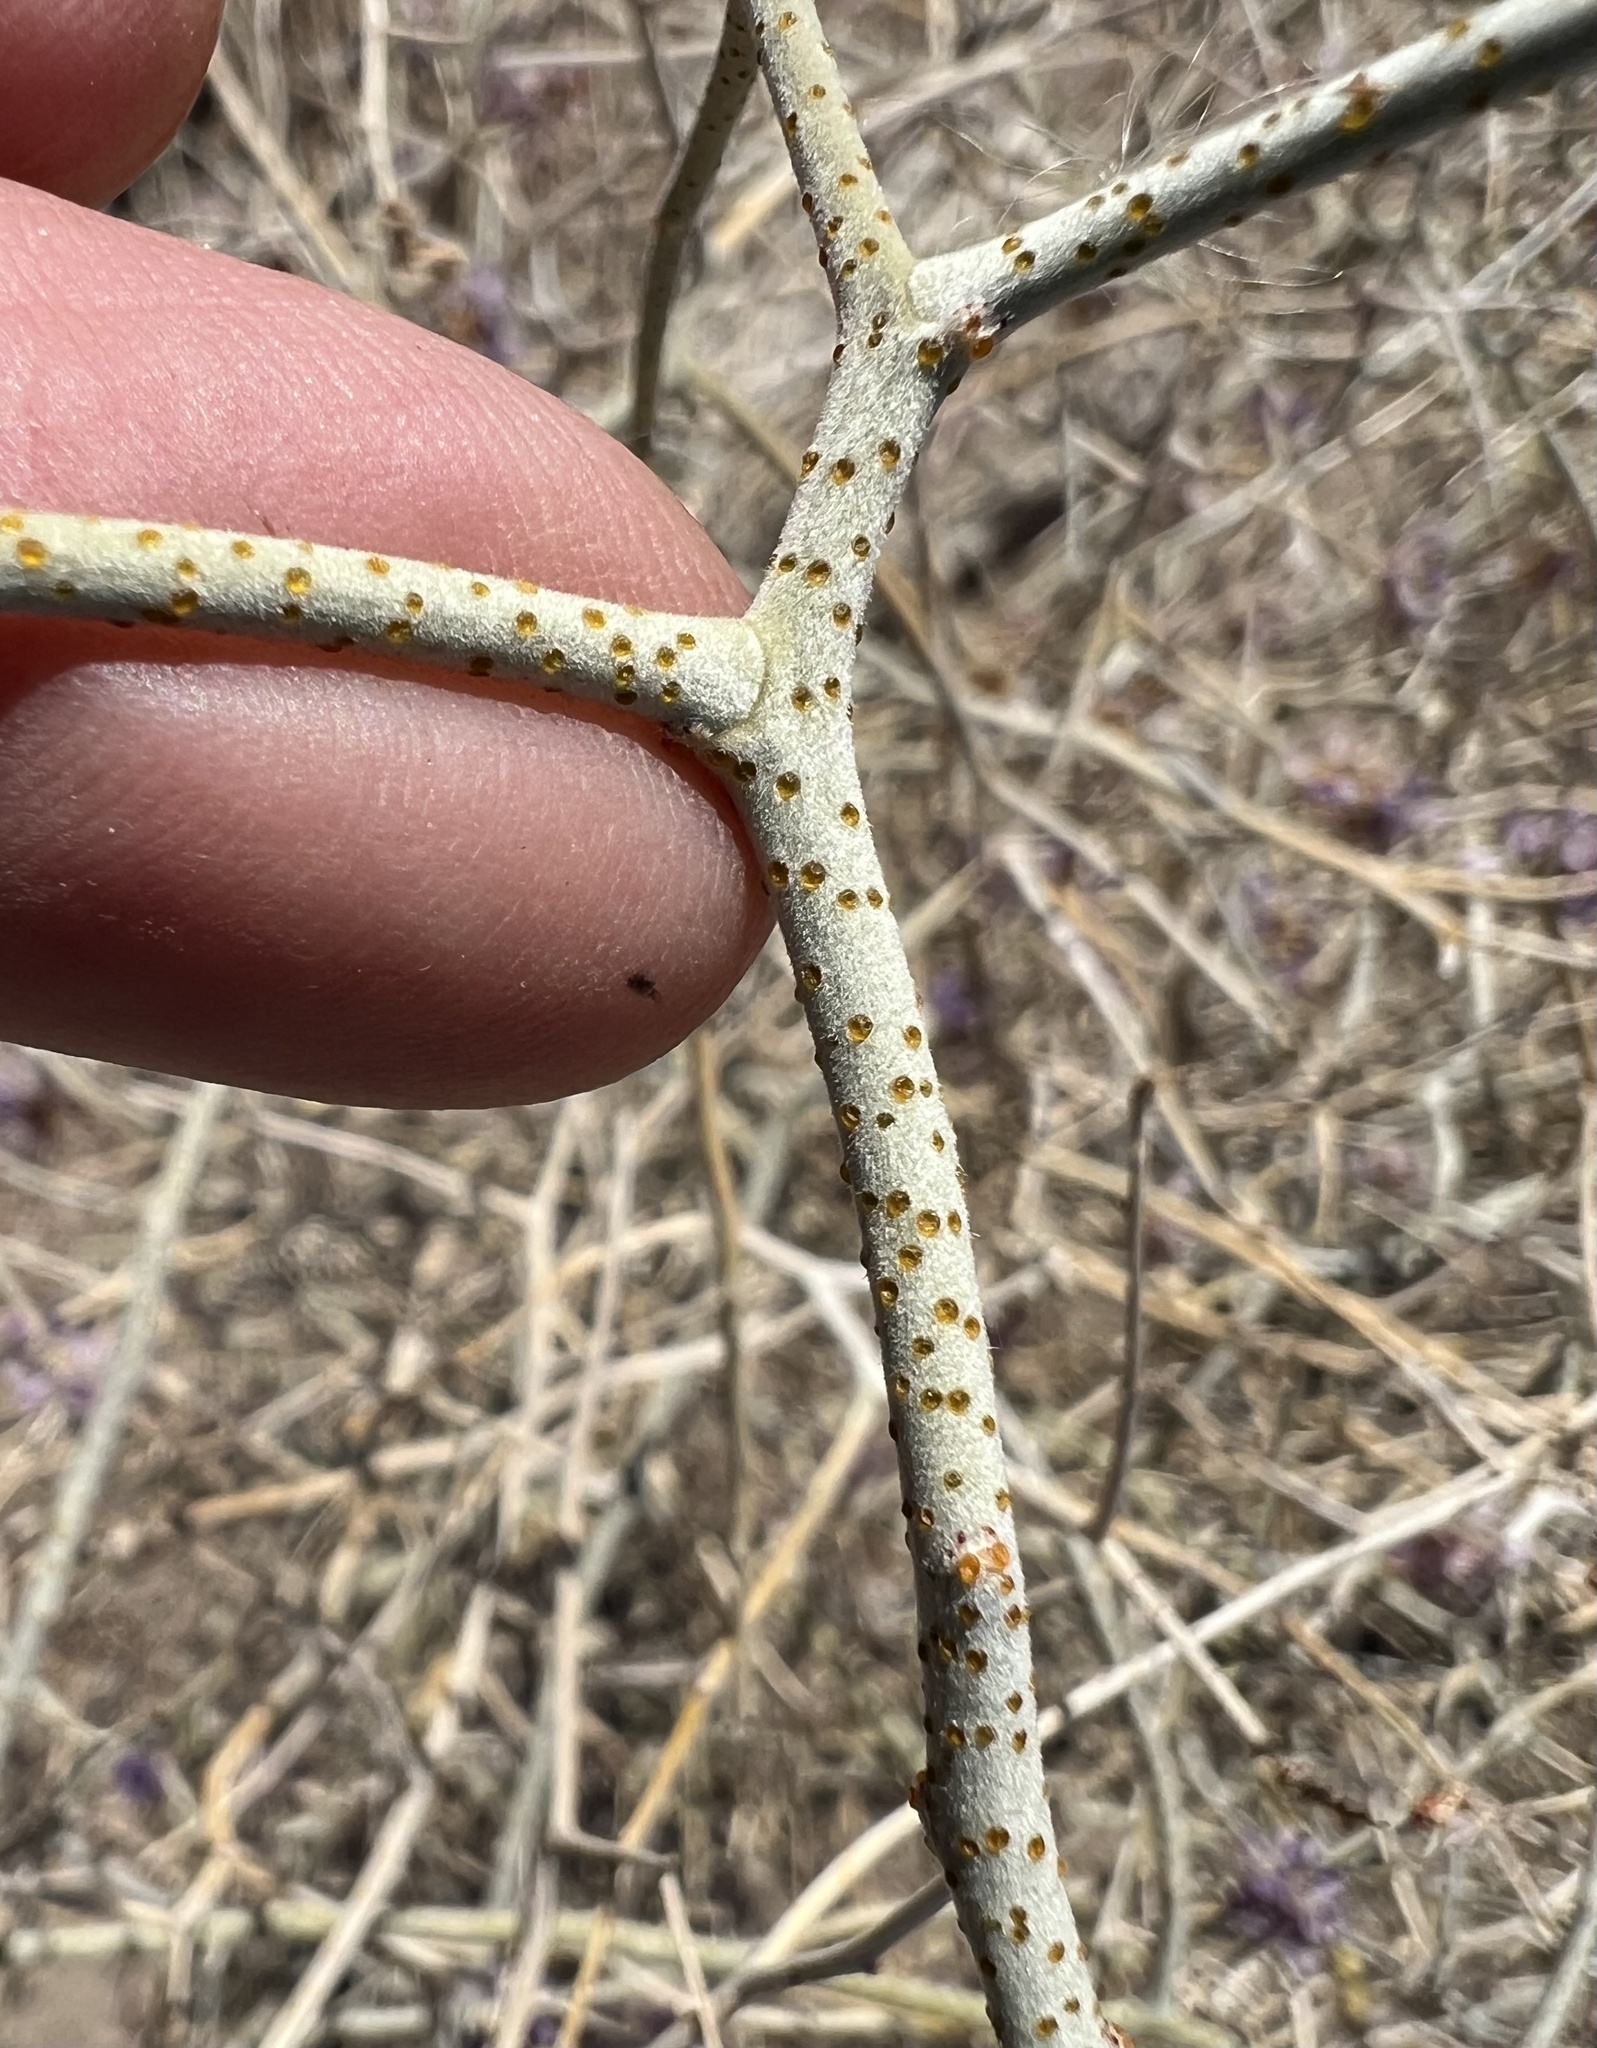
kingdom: Plantae
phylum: Tracheophyta
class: Magnoliopsida
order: Fabales
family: Fabaceae
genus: Psorothamnus
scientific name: Psorothamnus polydenius
